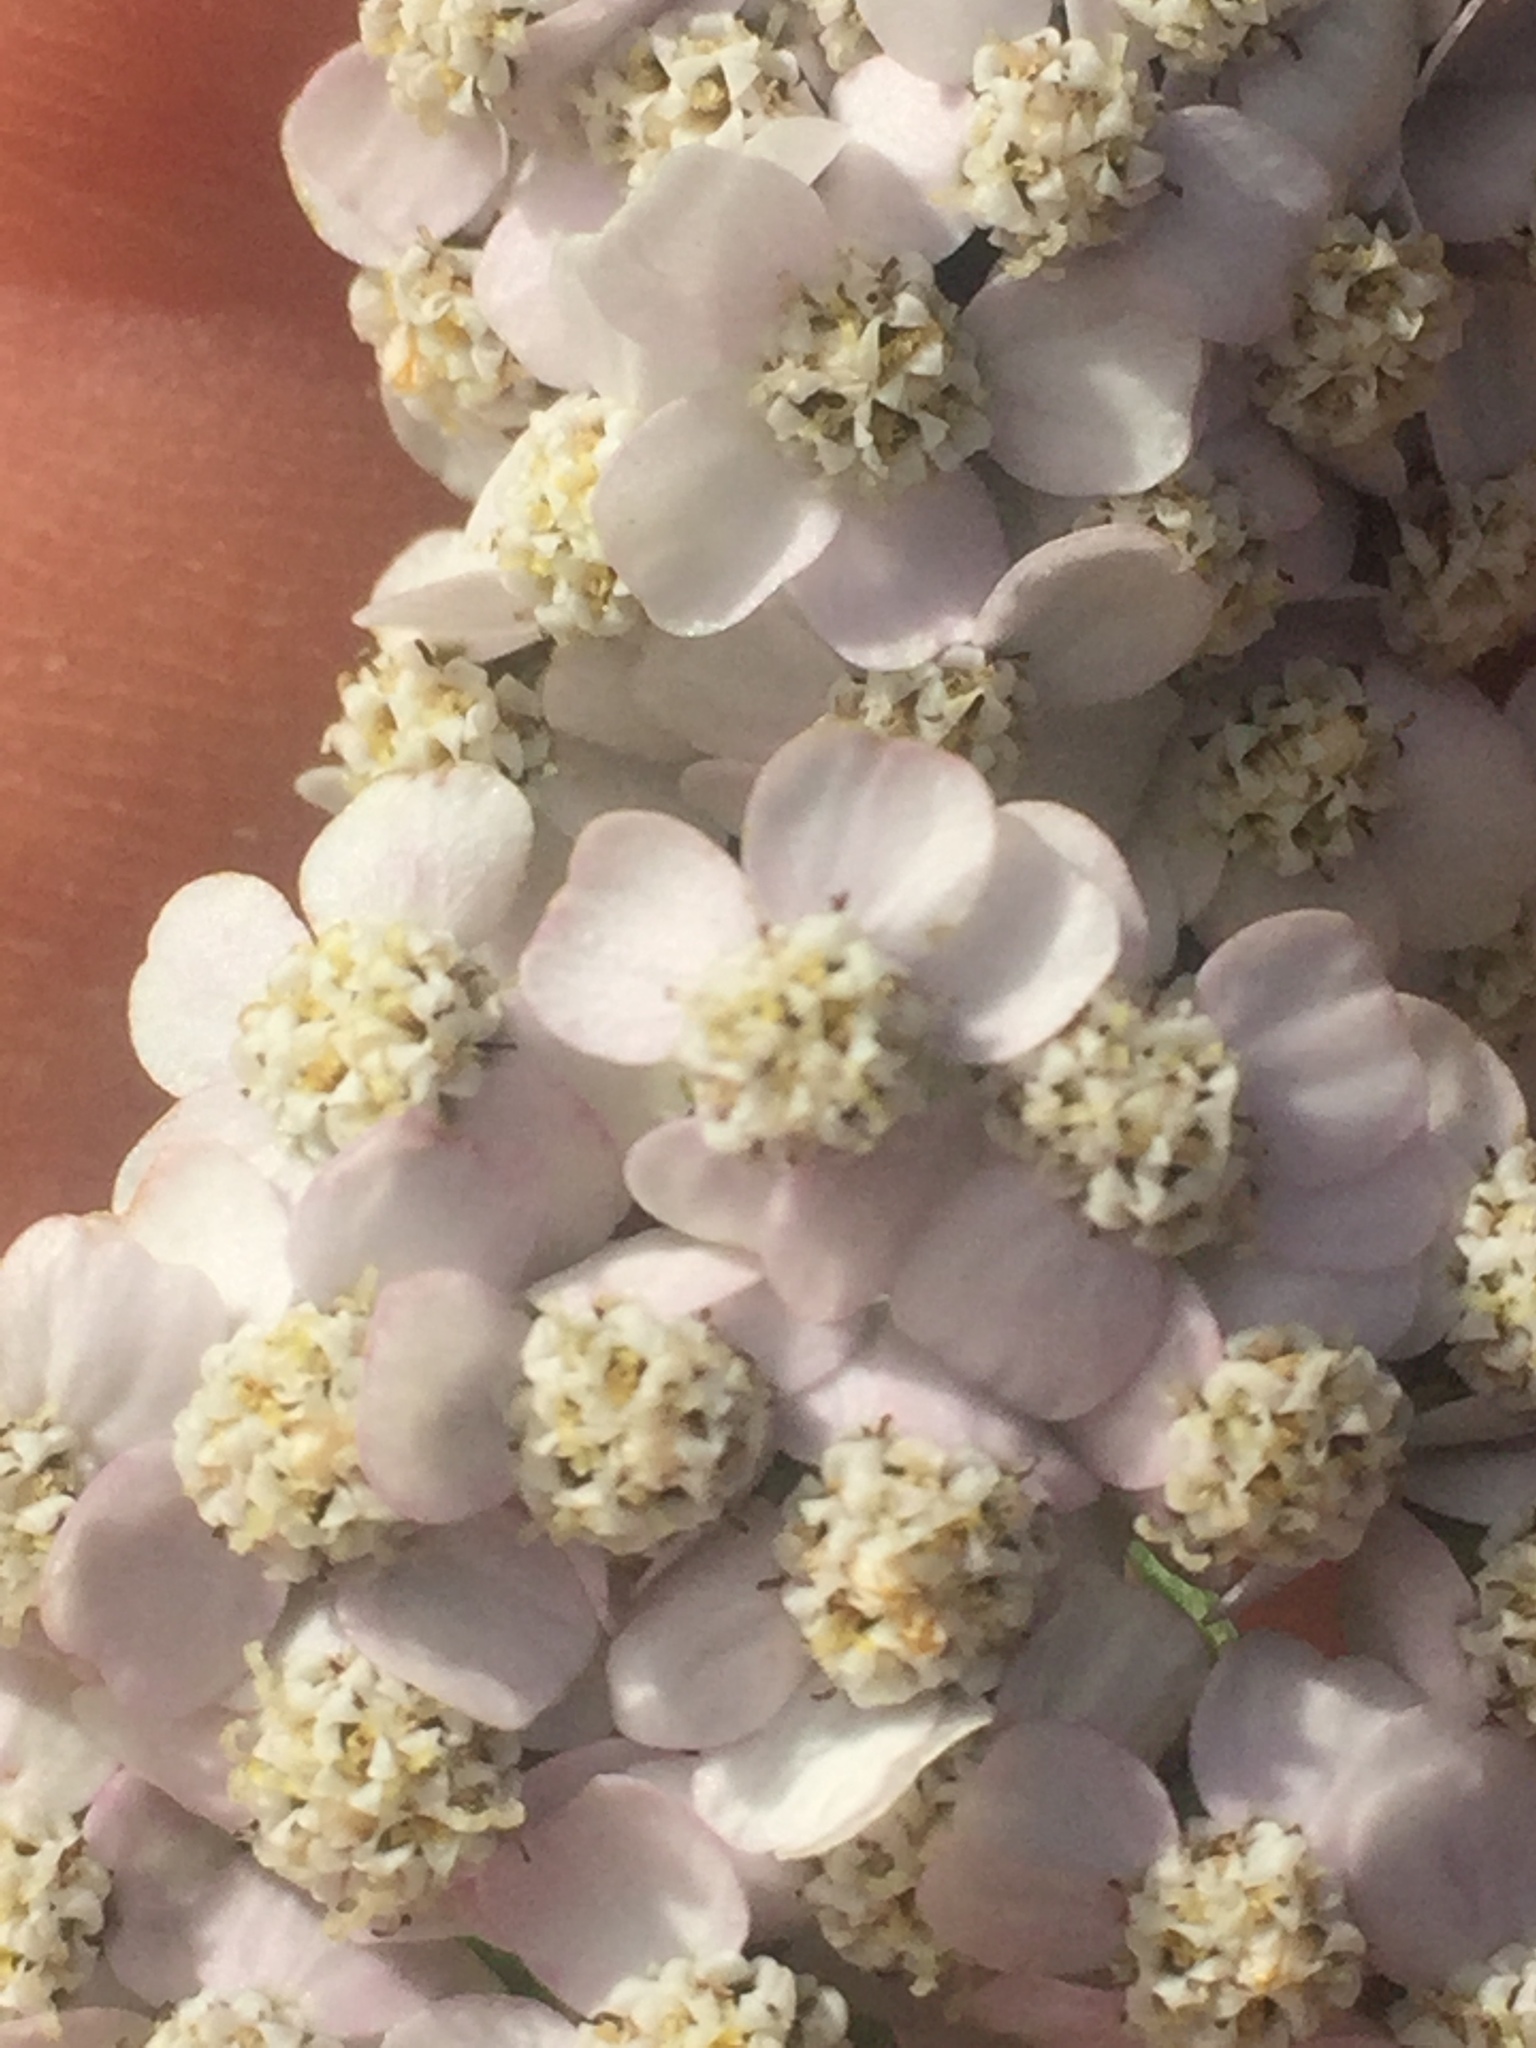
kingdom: Plantae
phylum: Tracheophyta
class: Magnoliopsida
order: Asterales
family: Asteraceae
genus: Achillea
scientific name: Achillea millefolium
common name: Yarrow
